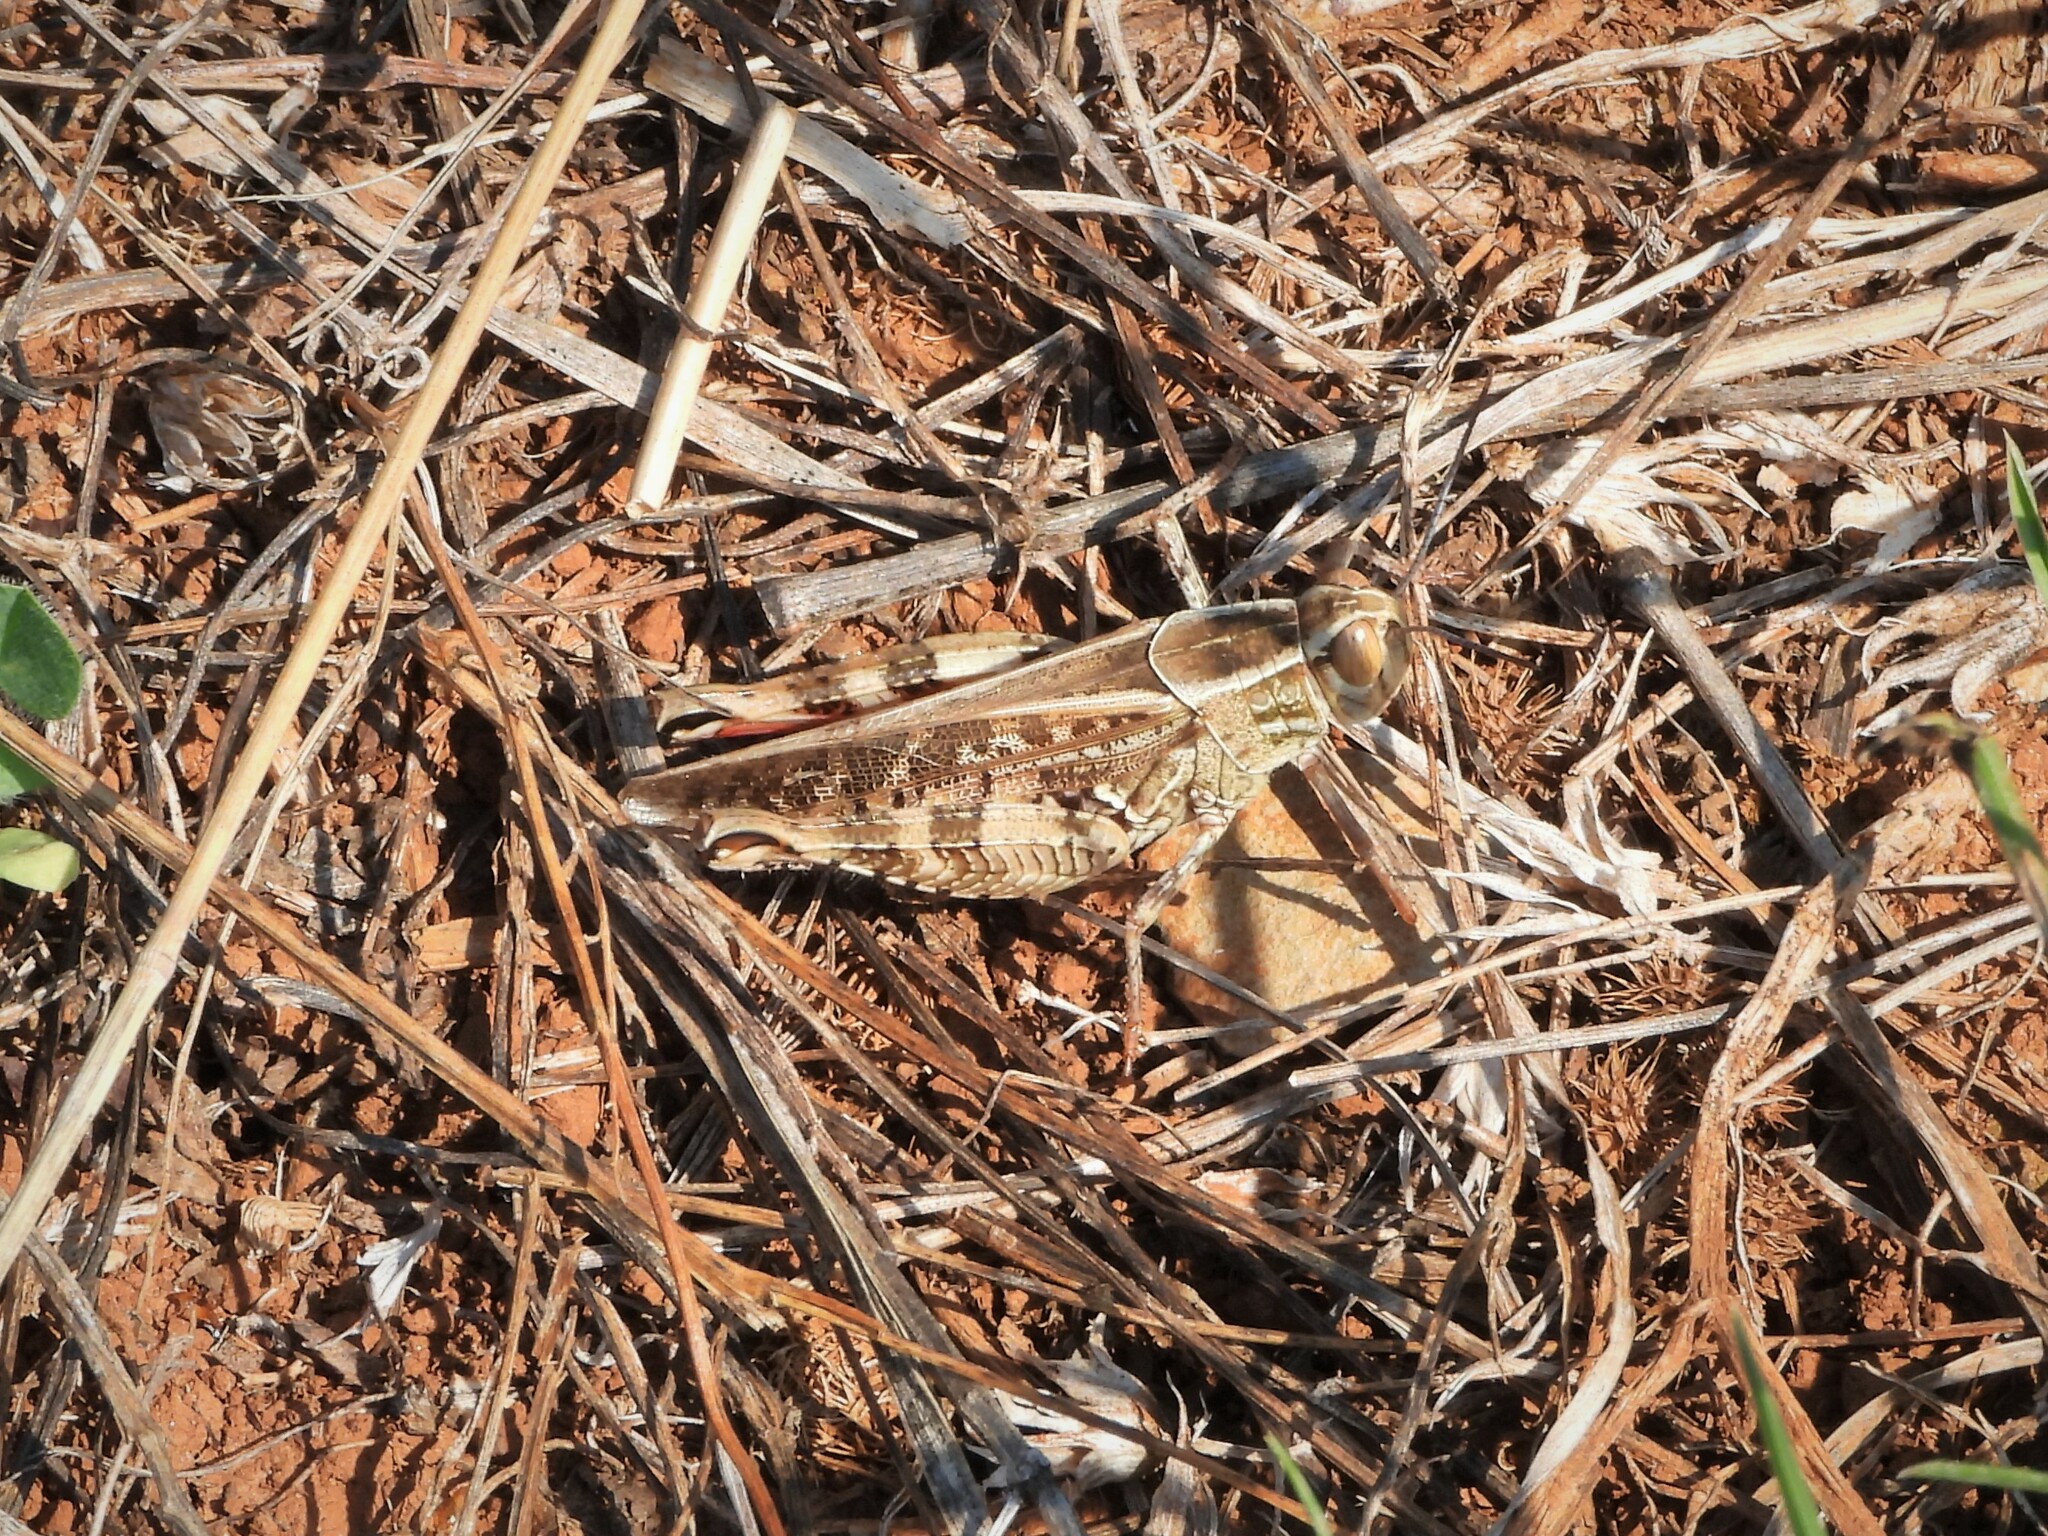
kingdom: Animalia
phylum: Arthropoda
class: Insecta
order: Orthoptera
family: Acrididae
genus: Calliptamus
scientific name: Calliptamus italicus
